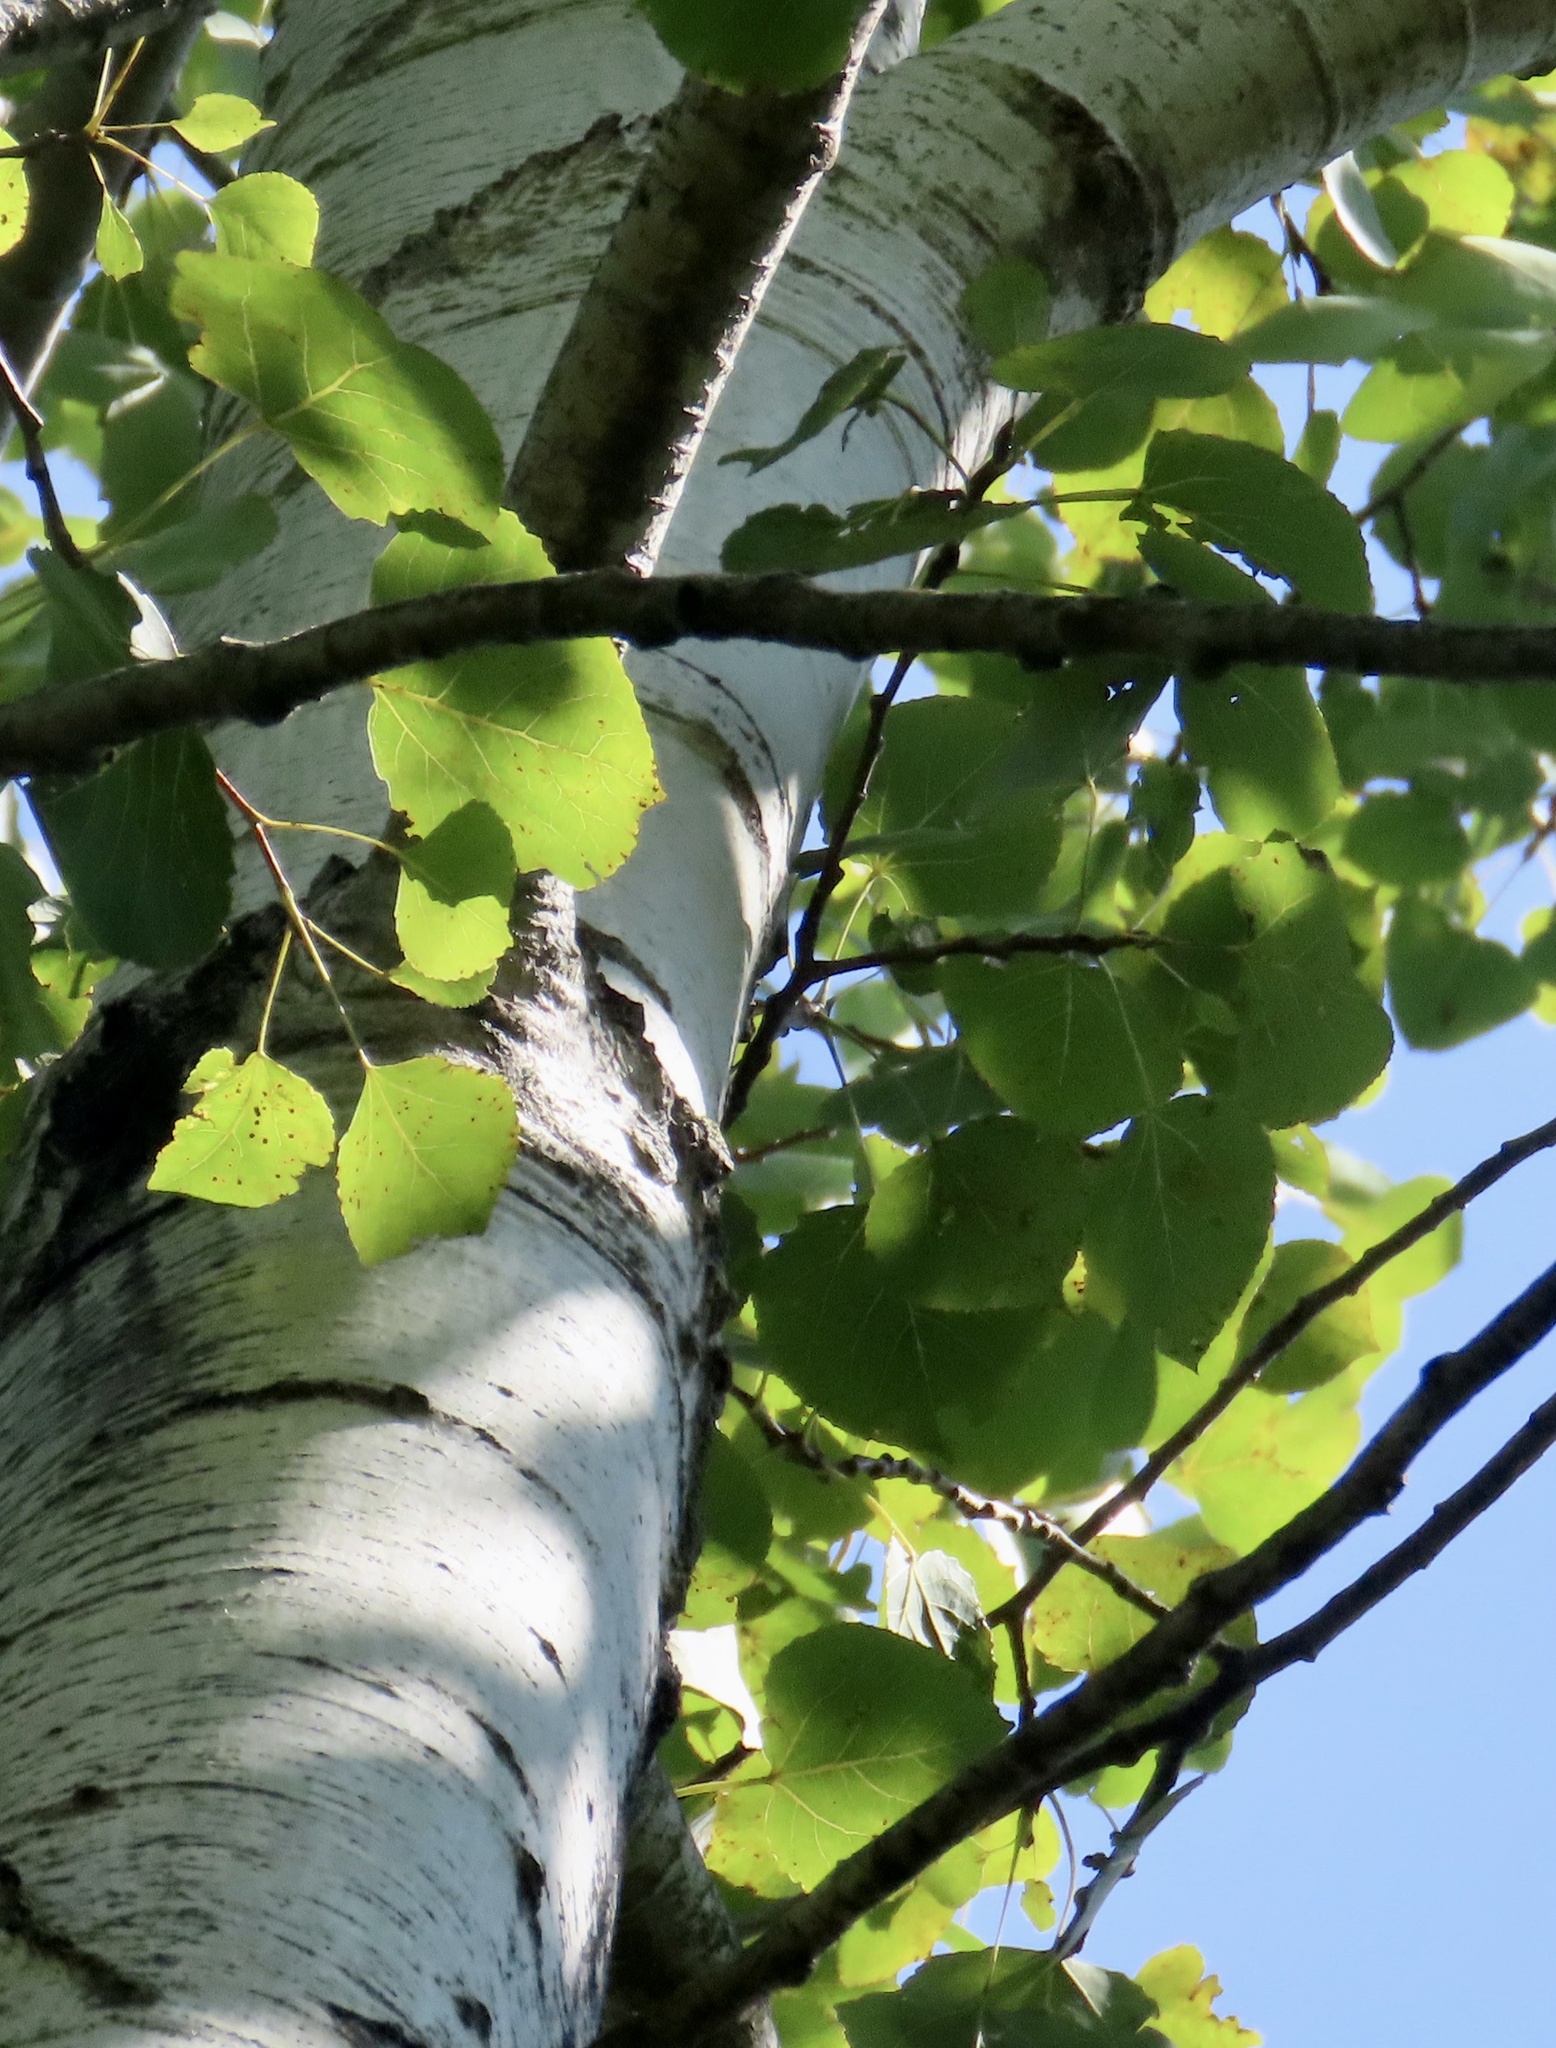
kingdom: Plantae
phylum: Tracheophyta
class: Magnoliopsida
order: Malpighiales
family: Salicaceae
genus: Populus
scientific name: Populus tremuloides
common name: Quaking aspen
